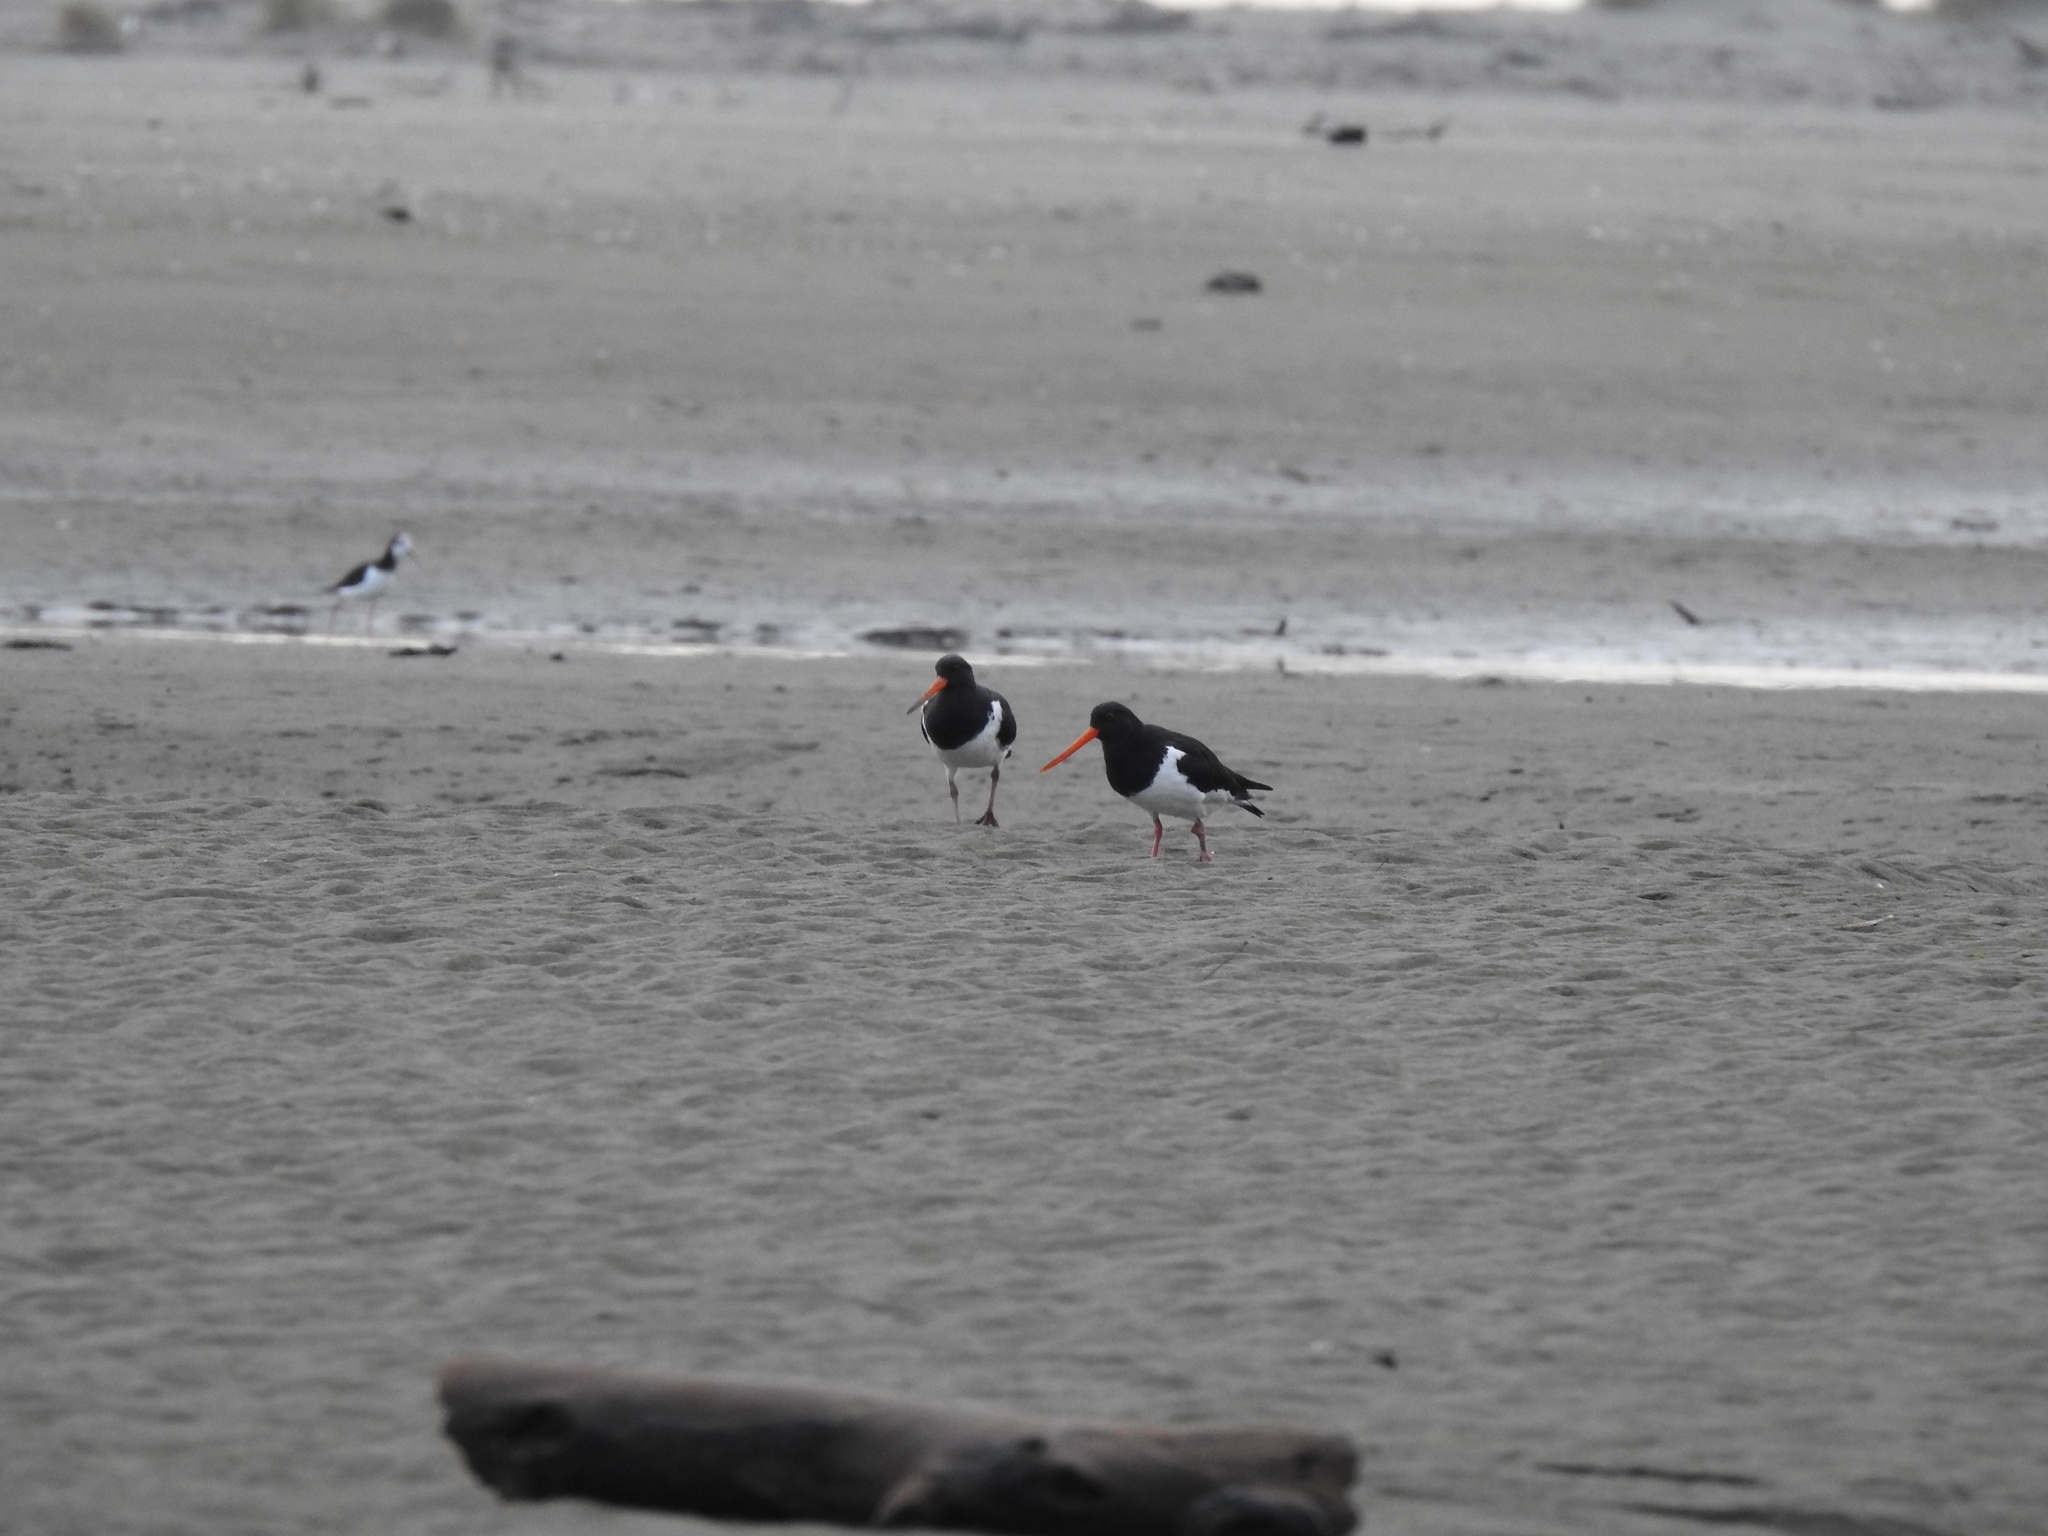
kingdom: Animalia
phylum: Chordata
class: Aves
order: Charadriiformes
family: Haematopodidae
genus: Haematopus
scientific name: Haematopus finschi
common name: South island oystercatcher
